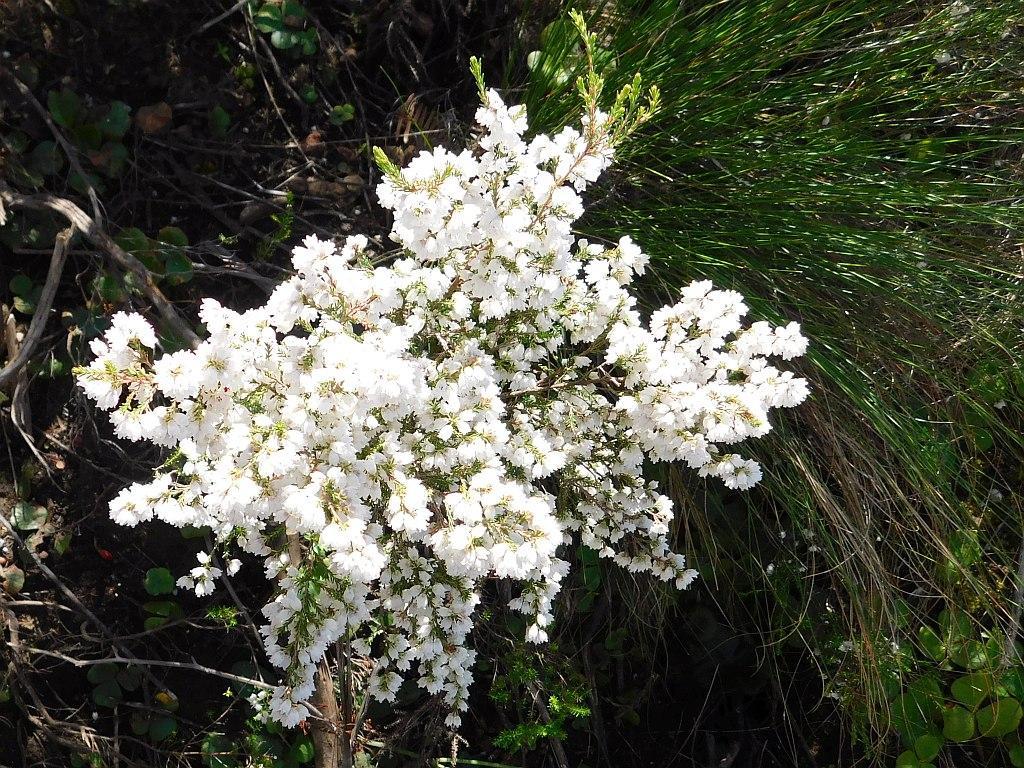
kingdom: Plantae
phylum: Tracheophyta
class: Magnoliopsida
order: Ericales
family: Ericaceae
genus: Erica
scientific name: Erica quadrangularis
